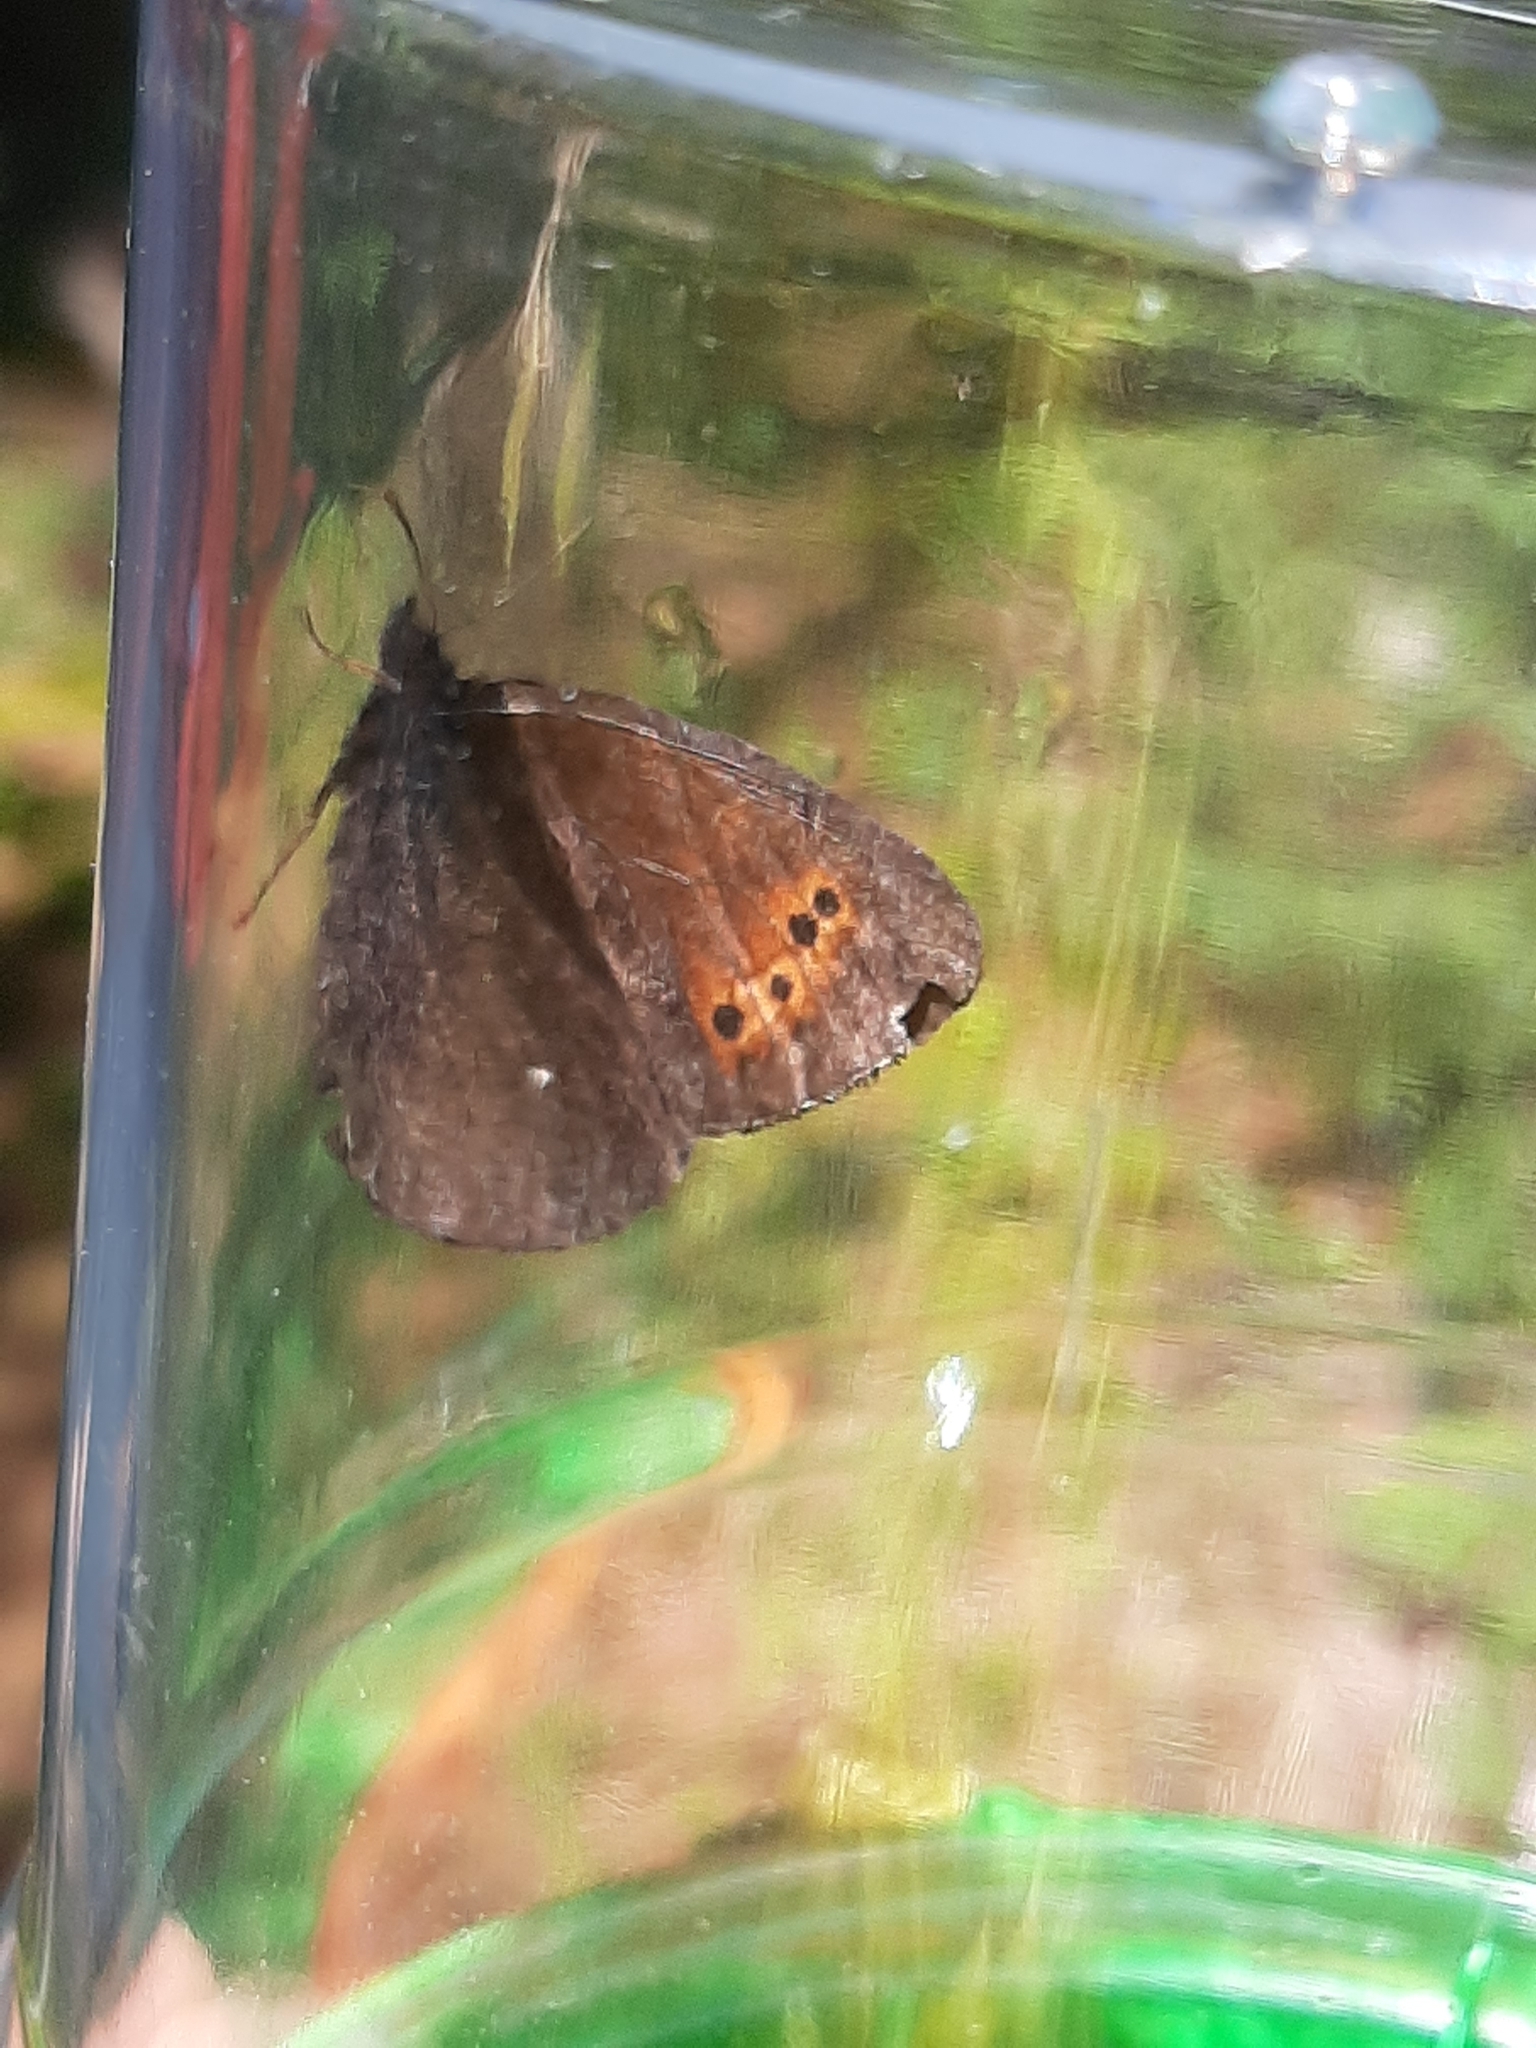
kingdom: Animalia
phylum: Arthropoda
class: Insecta
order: Lepidoptera
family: Nymphalidae
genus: Erebia
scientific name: Erebia disa
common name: Arctic ringlet
